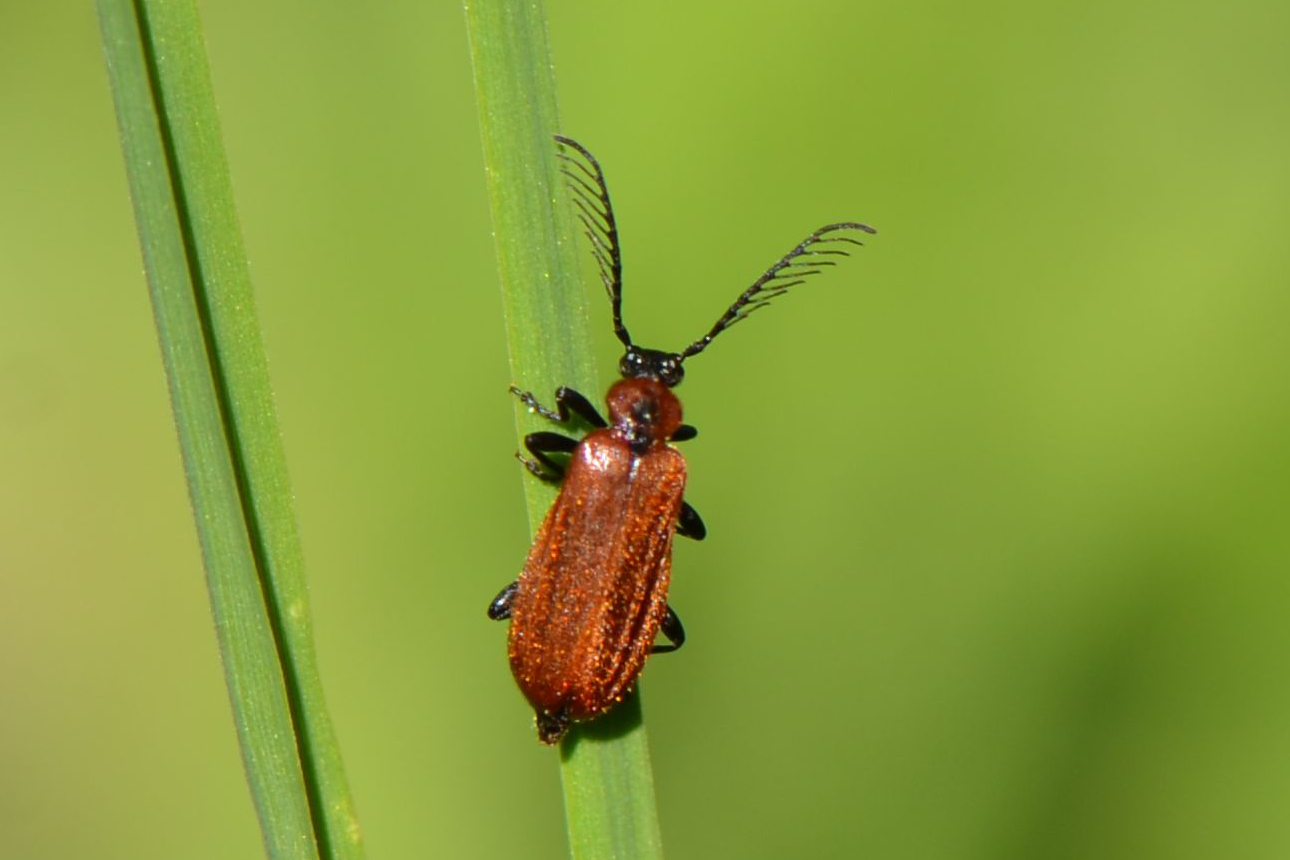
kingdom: Animalia
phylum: Arthropoda
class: Insecta
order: Coleoptera
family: Pyrochroidae
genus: Schizotus
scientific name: Schizotus pectinicornis
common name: Scarce cardinal beetle
